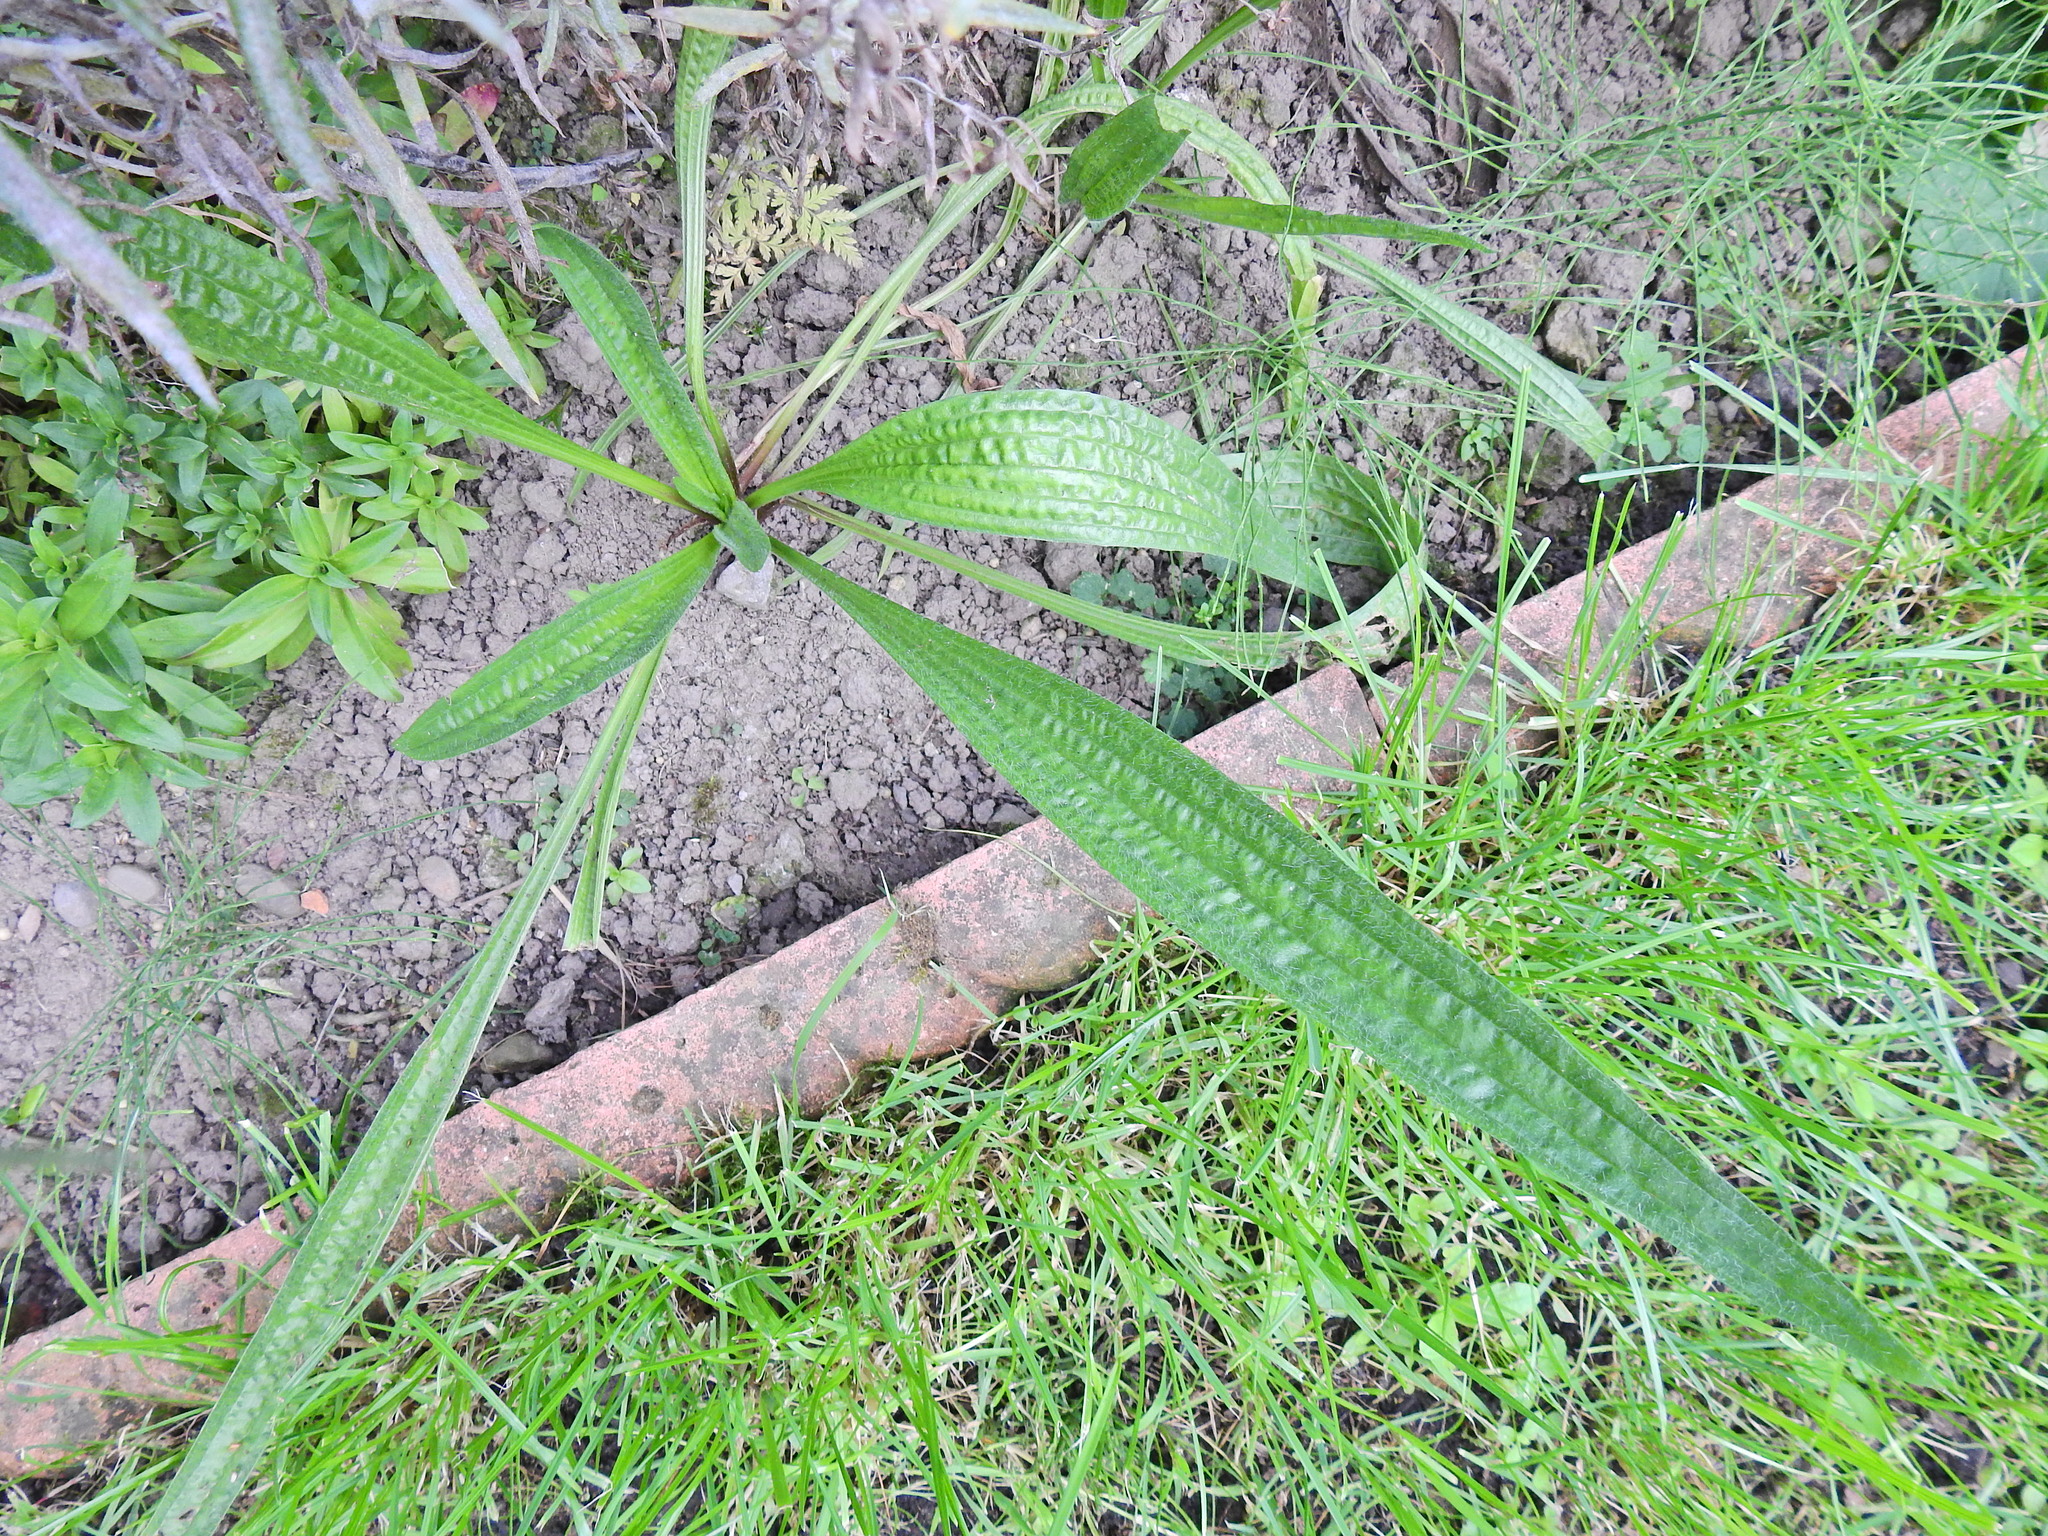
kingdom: Plantae
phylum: Tracheophyta
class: Magnoliopsida
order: Lamiales
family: Plantaginaceae
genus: Plantago
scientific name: Plantago lanceolata
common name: Ribwort plantain
